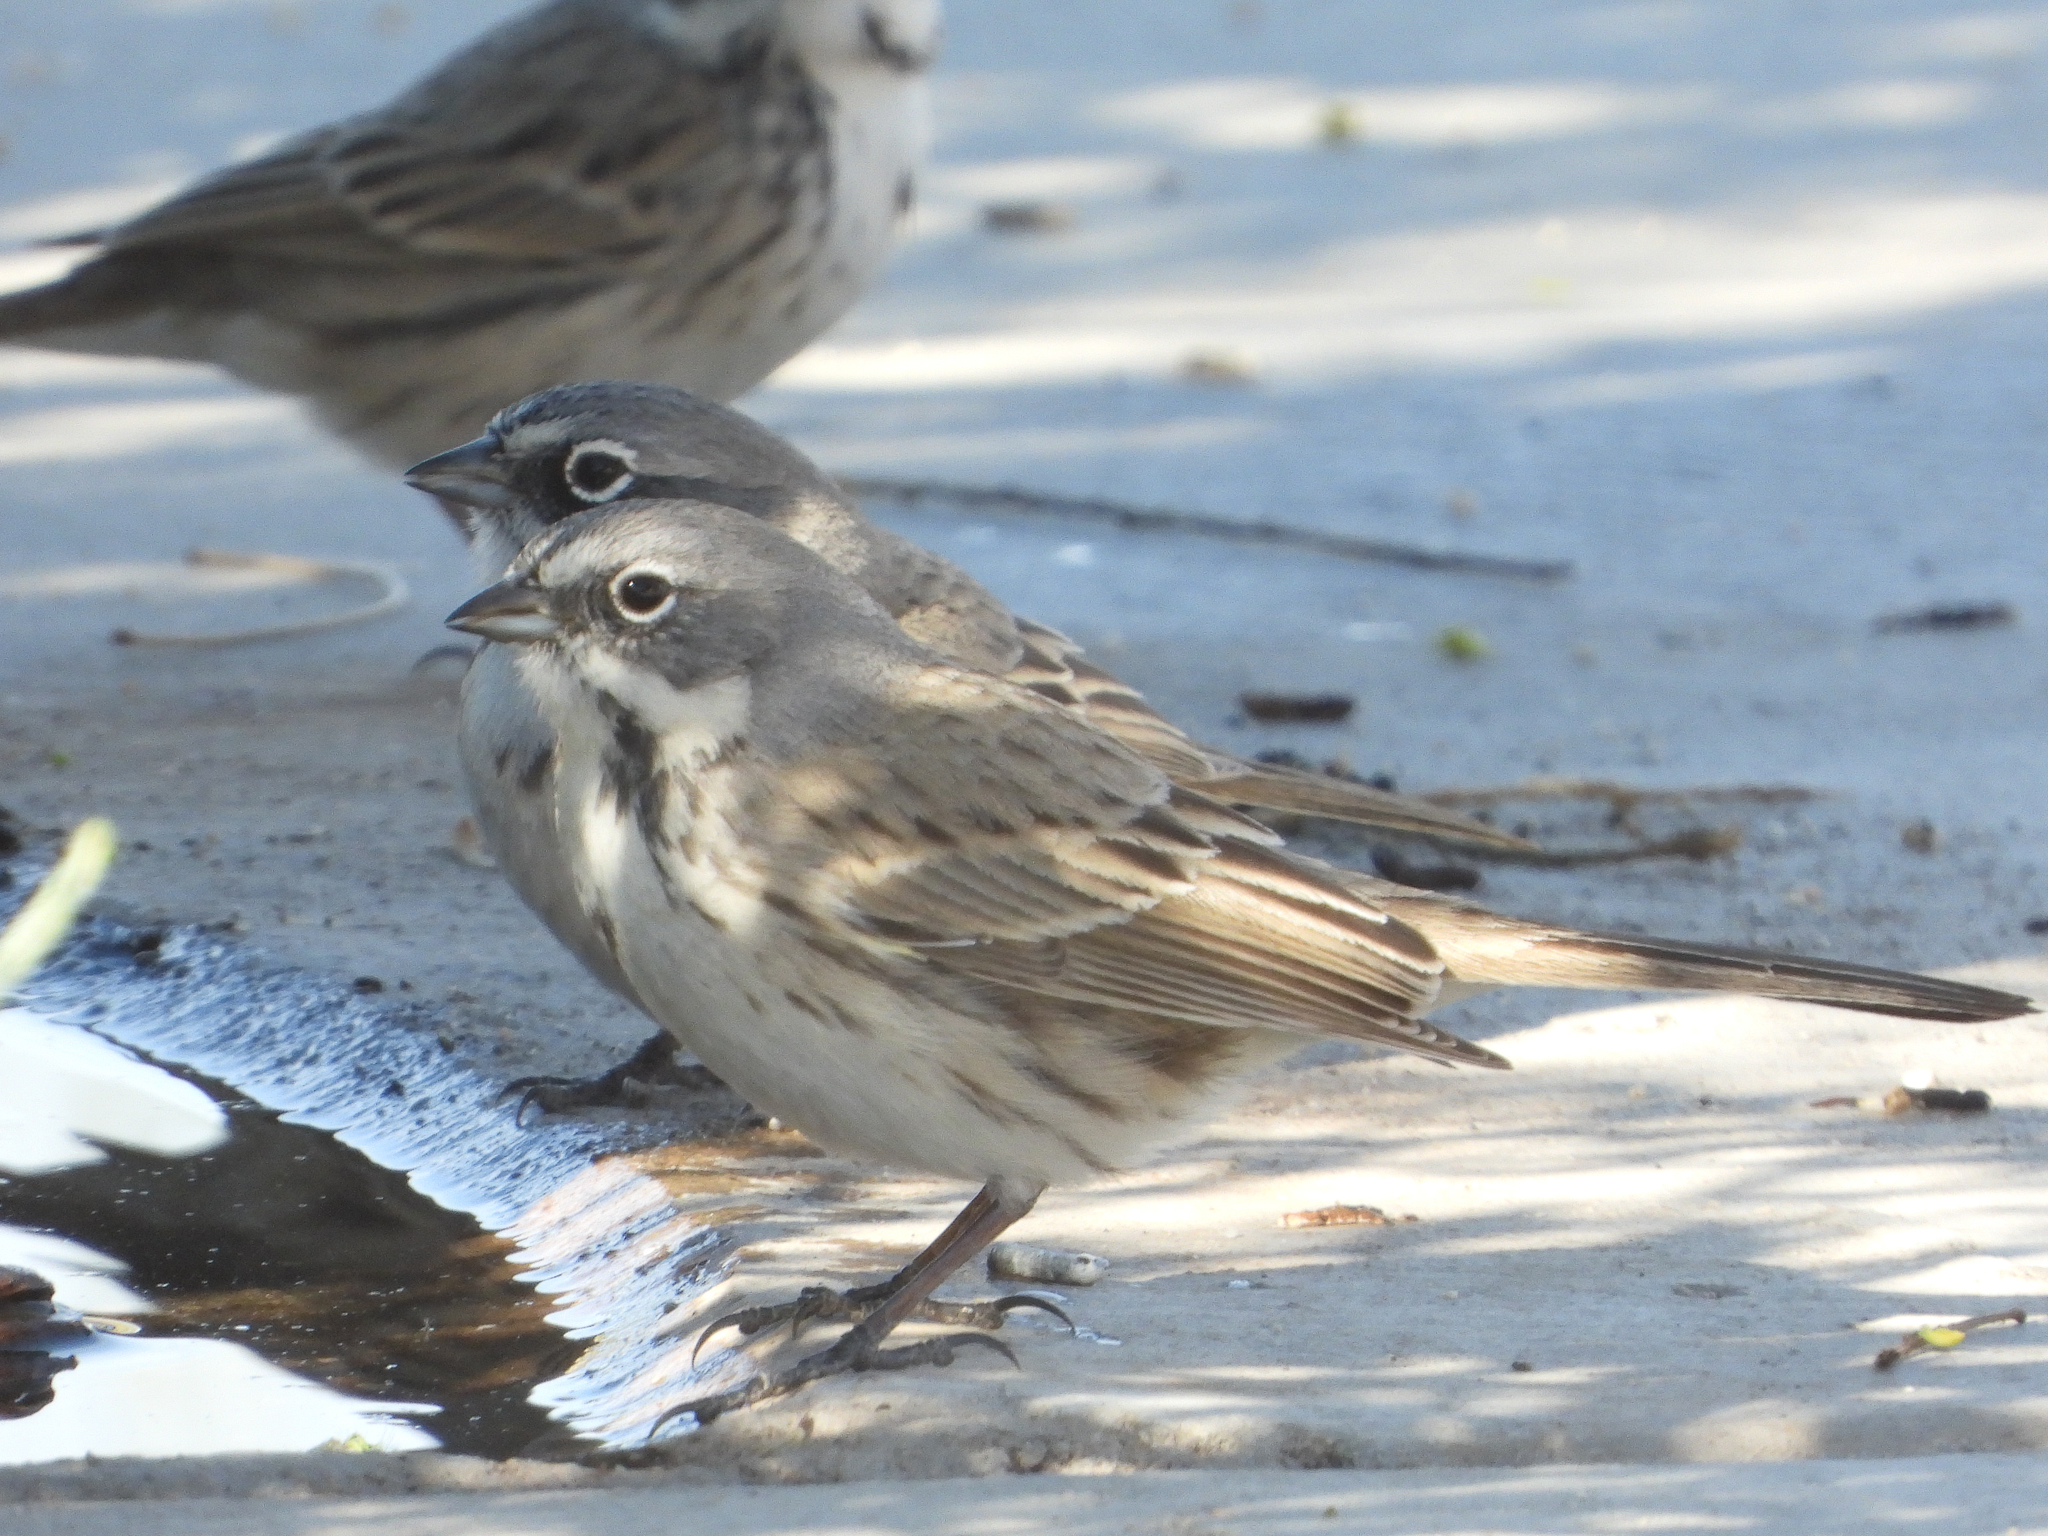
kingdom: Animalia
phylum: Chordata
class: Aves
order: Passeriformes
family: Passerellidae
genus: Artemisiospiza
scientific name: Artemisiospiza belli
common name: Bell's sparrow
